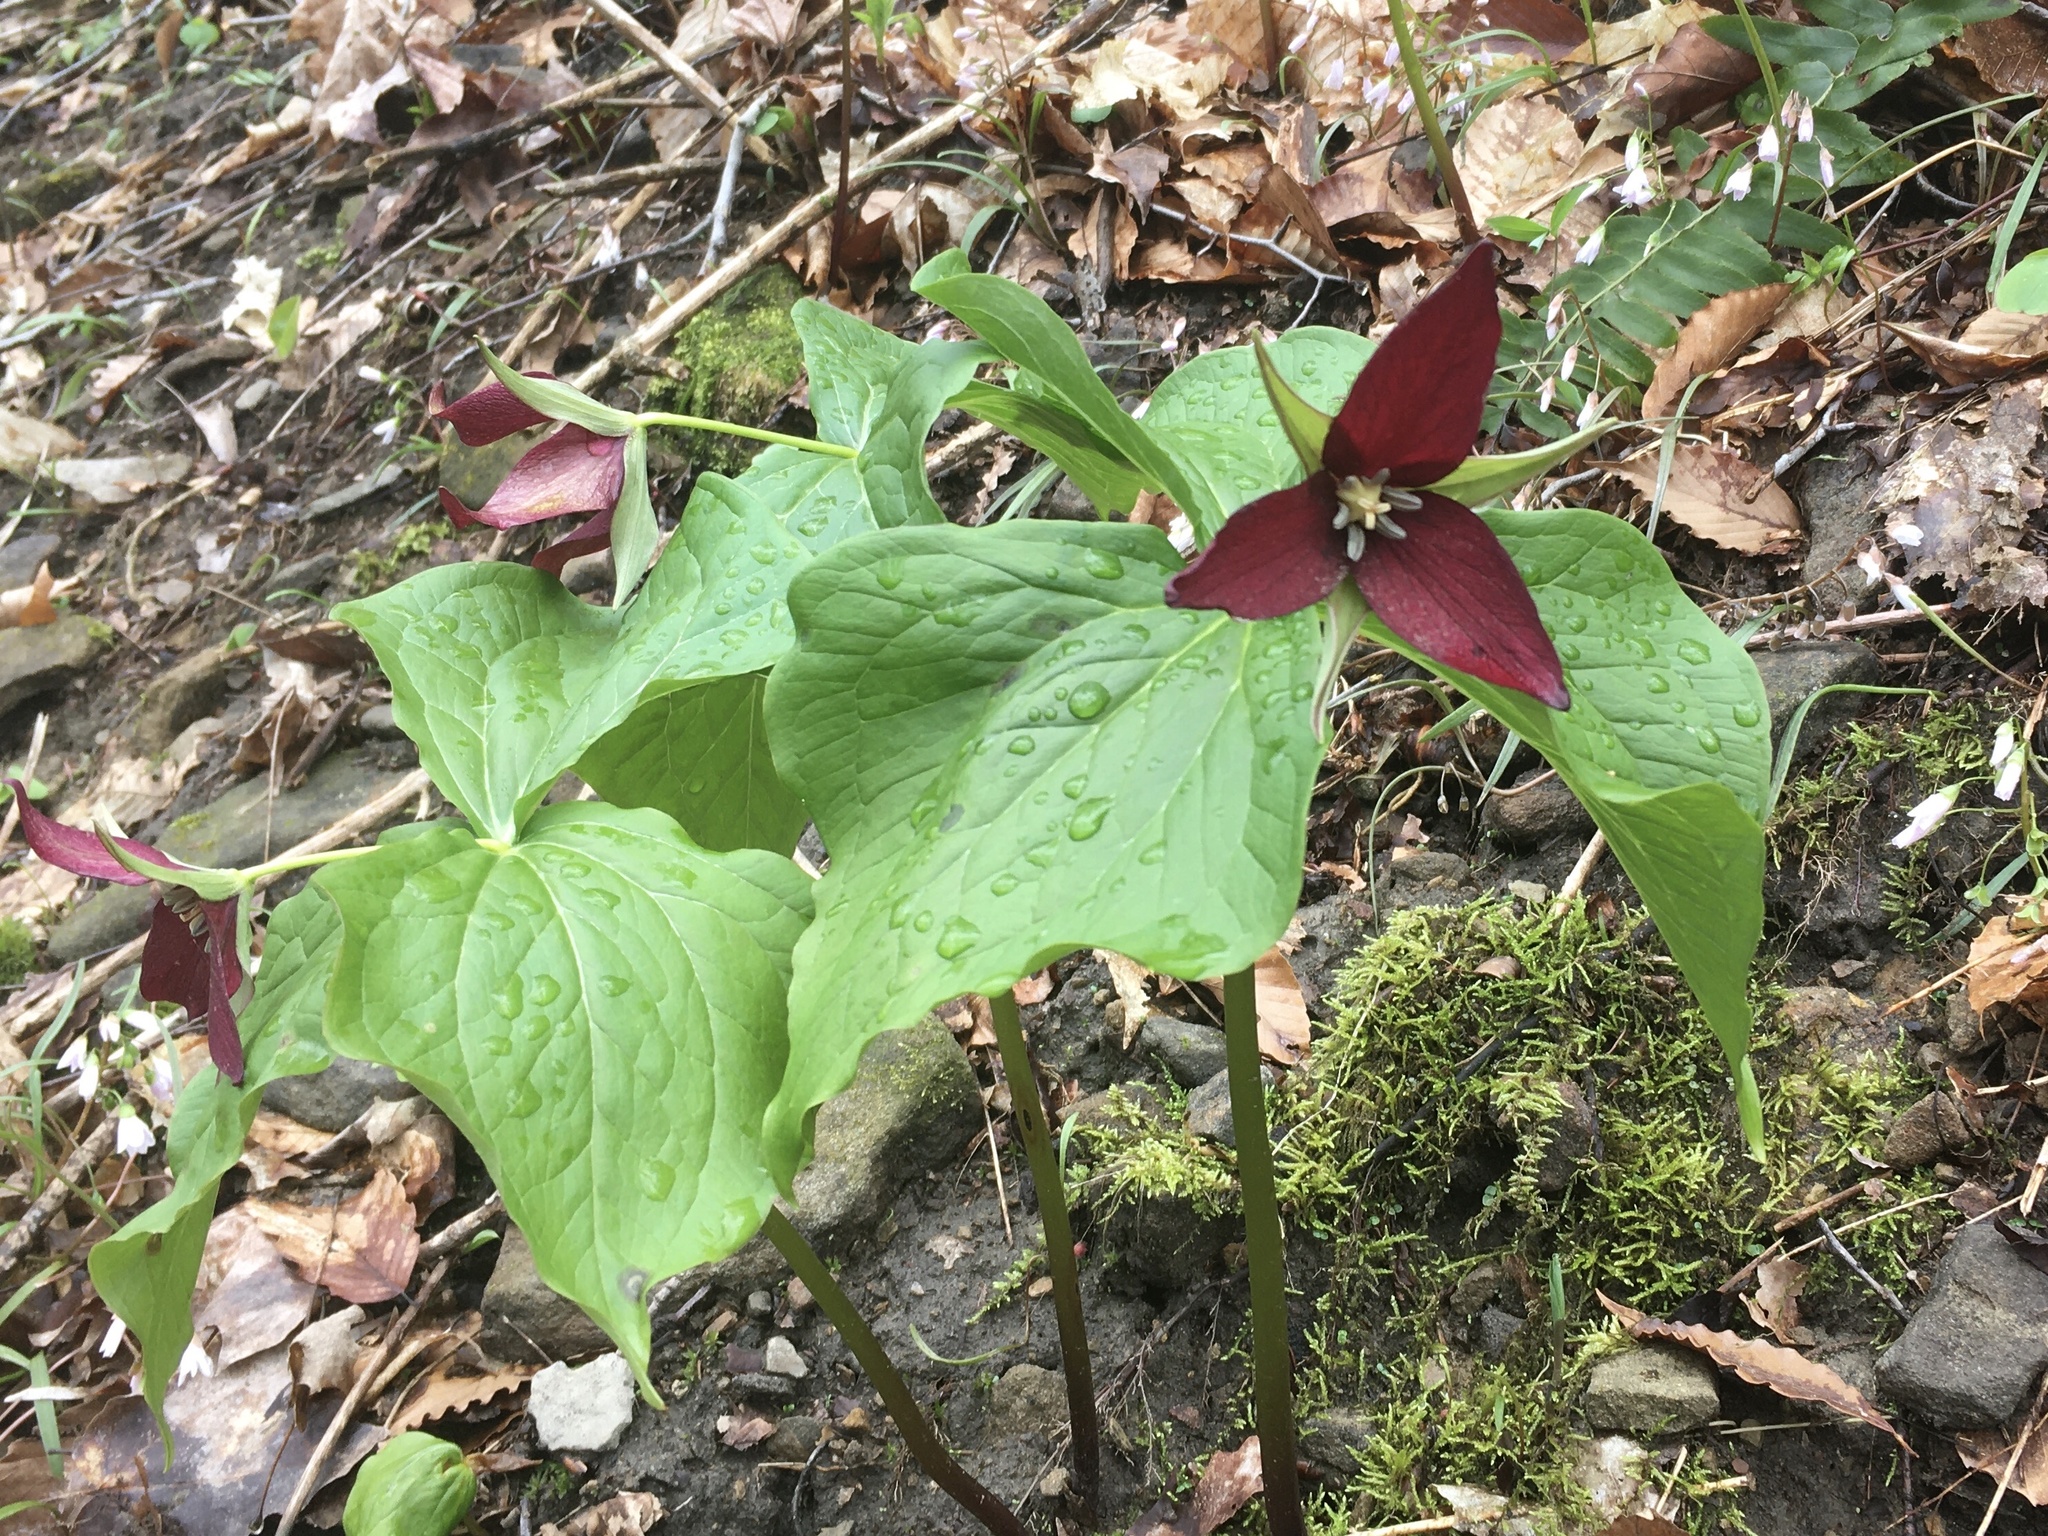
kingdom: Plantae
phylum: Tracheophyta
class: Liliopsida
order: Liliales
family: Melanthiaceae
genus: Trillium
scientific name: Trillium erectum
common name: Purple trillium
